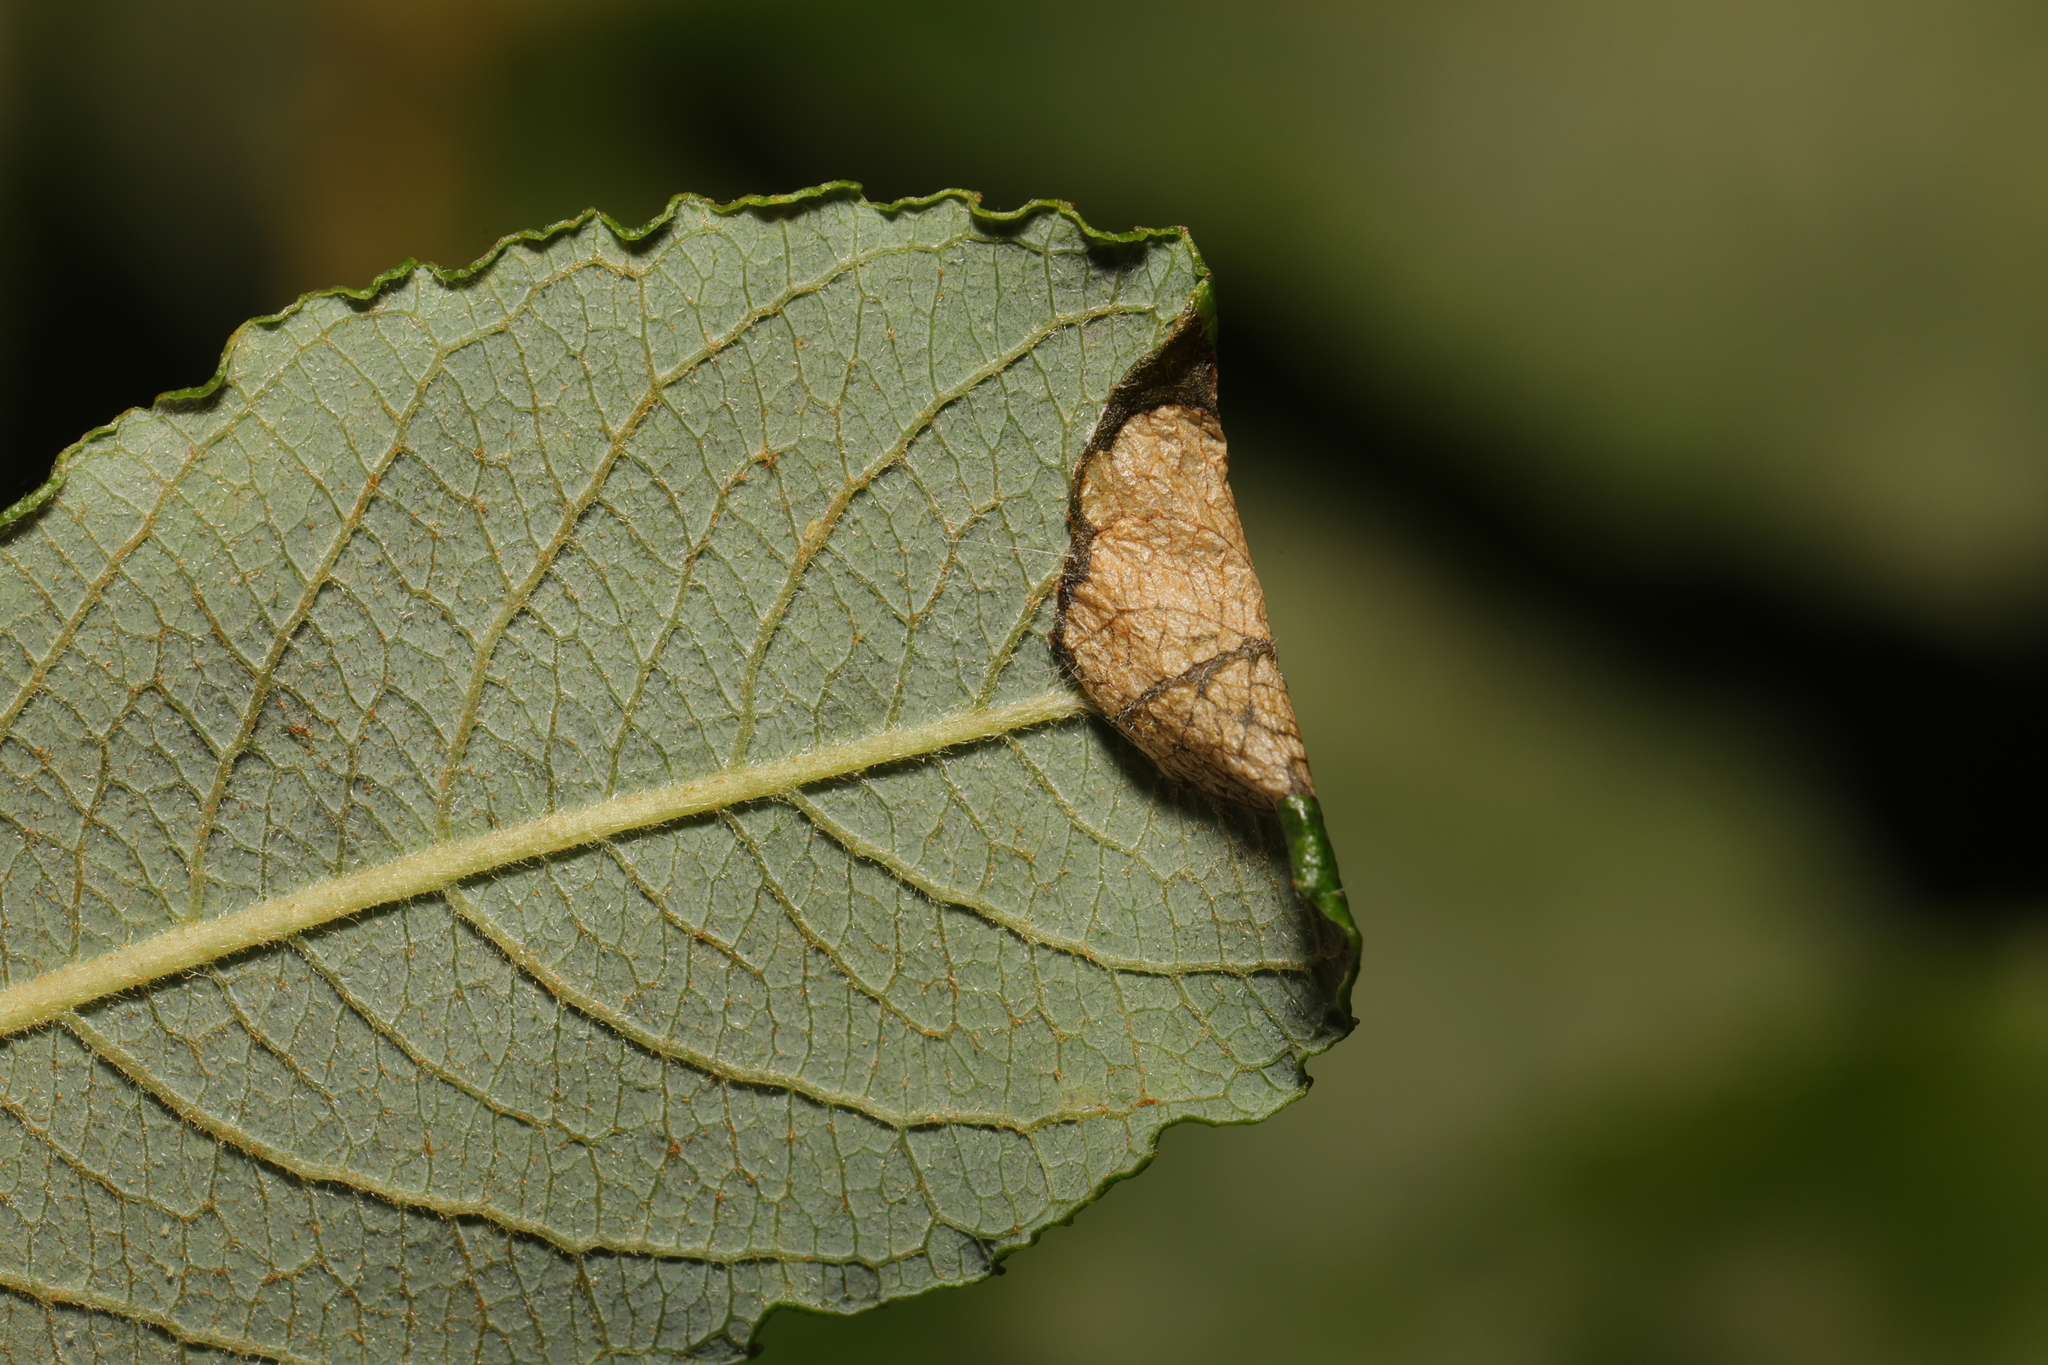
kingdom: Animalia
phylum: Arthropoda
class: Insecta
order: Lepidoptera
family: Gracillariidae
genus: Caloptilia
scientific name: Caloptilia stigmatella
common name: White-triangle slender
